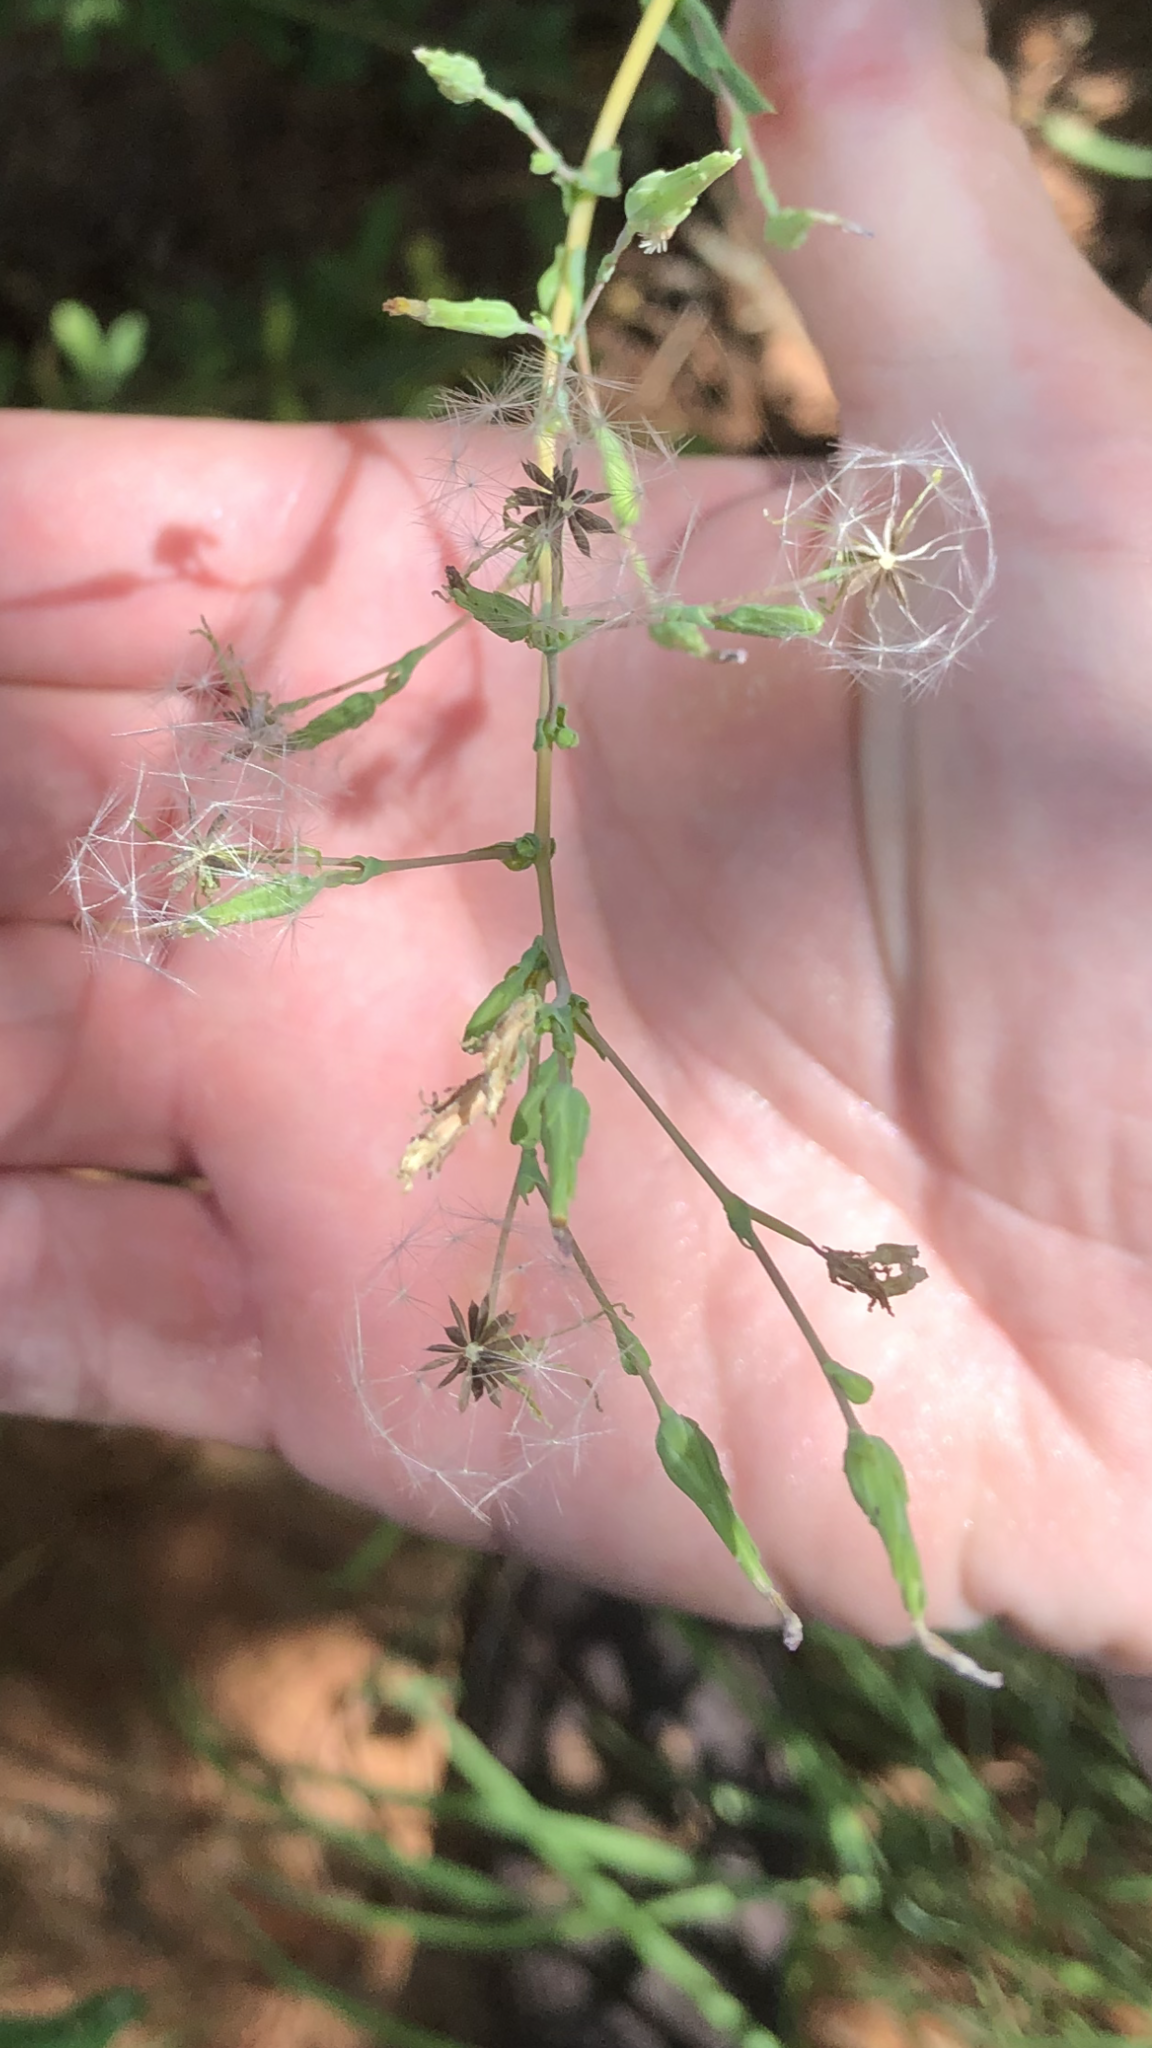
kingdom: Plantae
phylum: Tracheophyta
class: Magnoliopsida
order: Asterales
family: Asteraceae
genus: Lactuca
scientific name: Lactuca serriola
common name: Prickly lettuce
